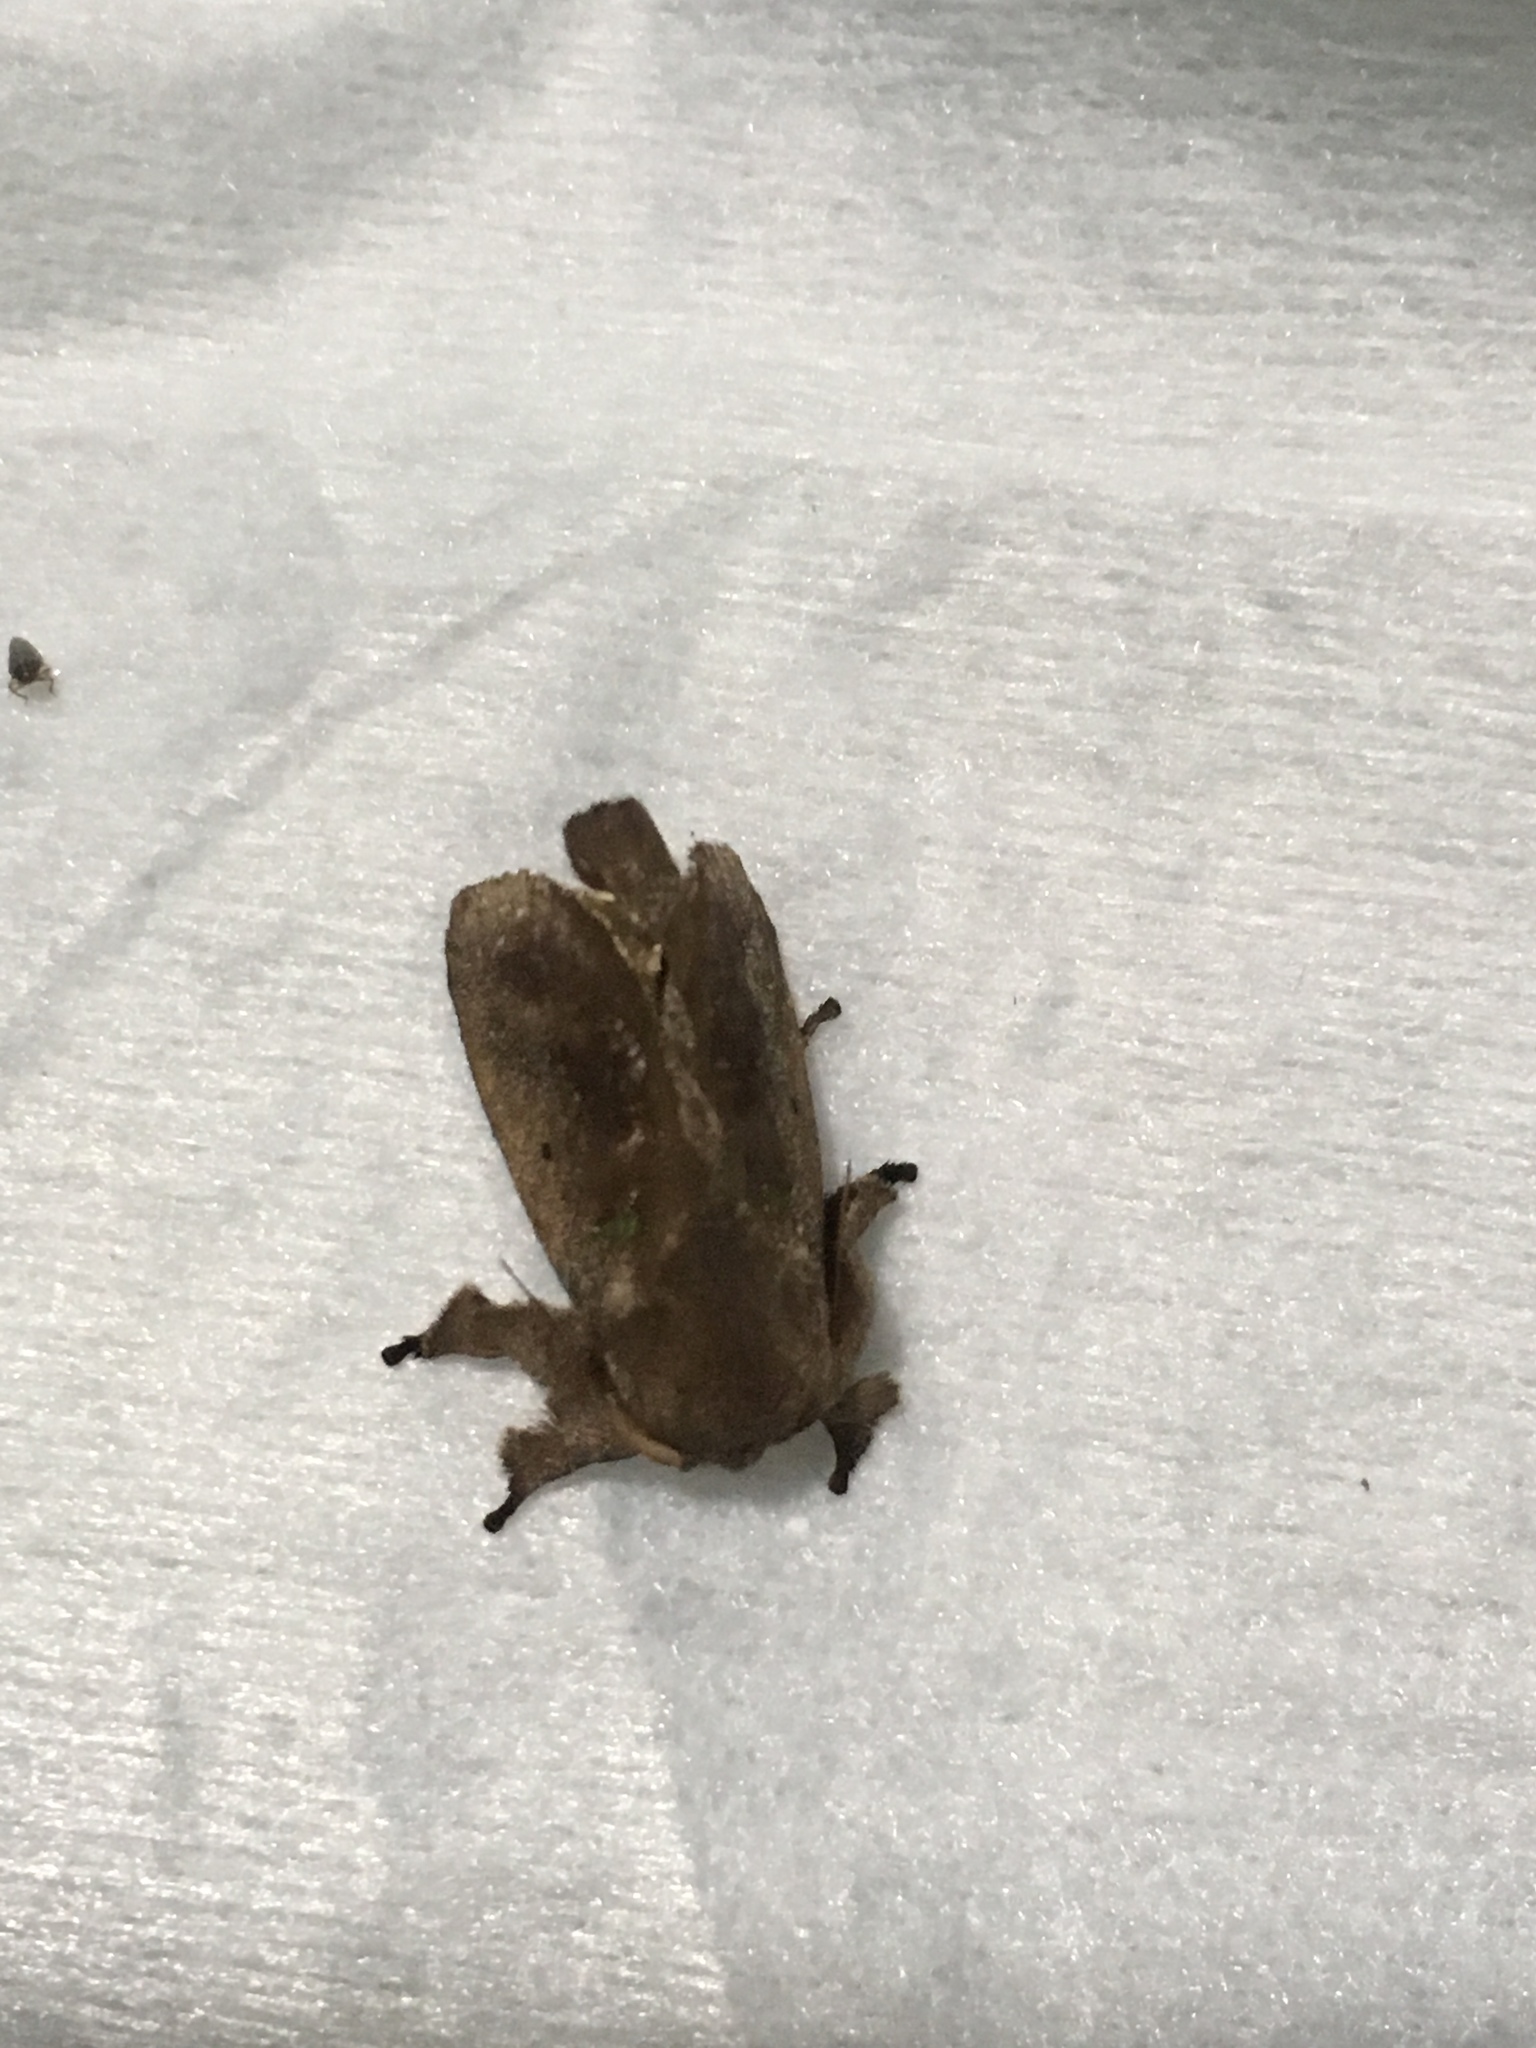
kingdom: Animalia
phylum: Arthropoda
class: Insecta
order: Lepidoptera
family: Limacodidae
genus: Euclea
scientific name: Euclea norba
